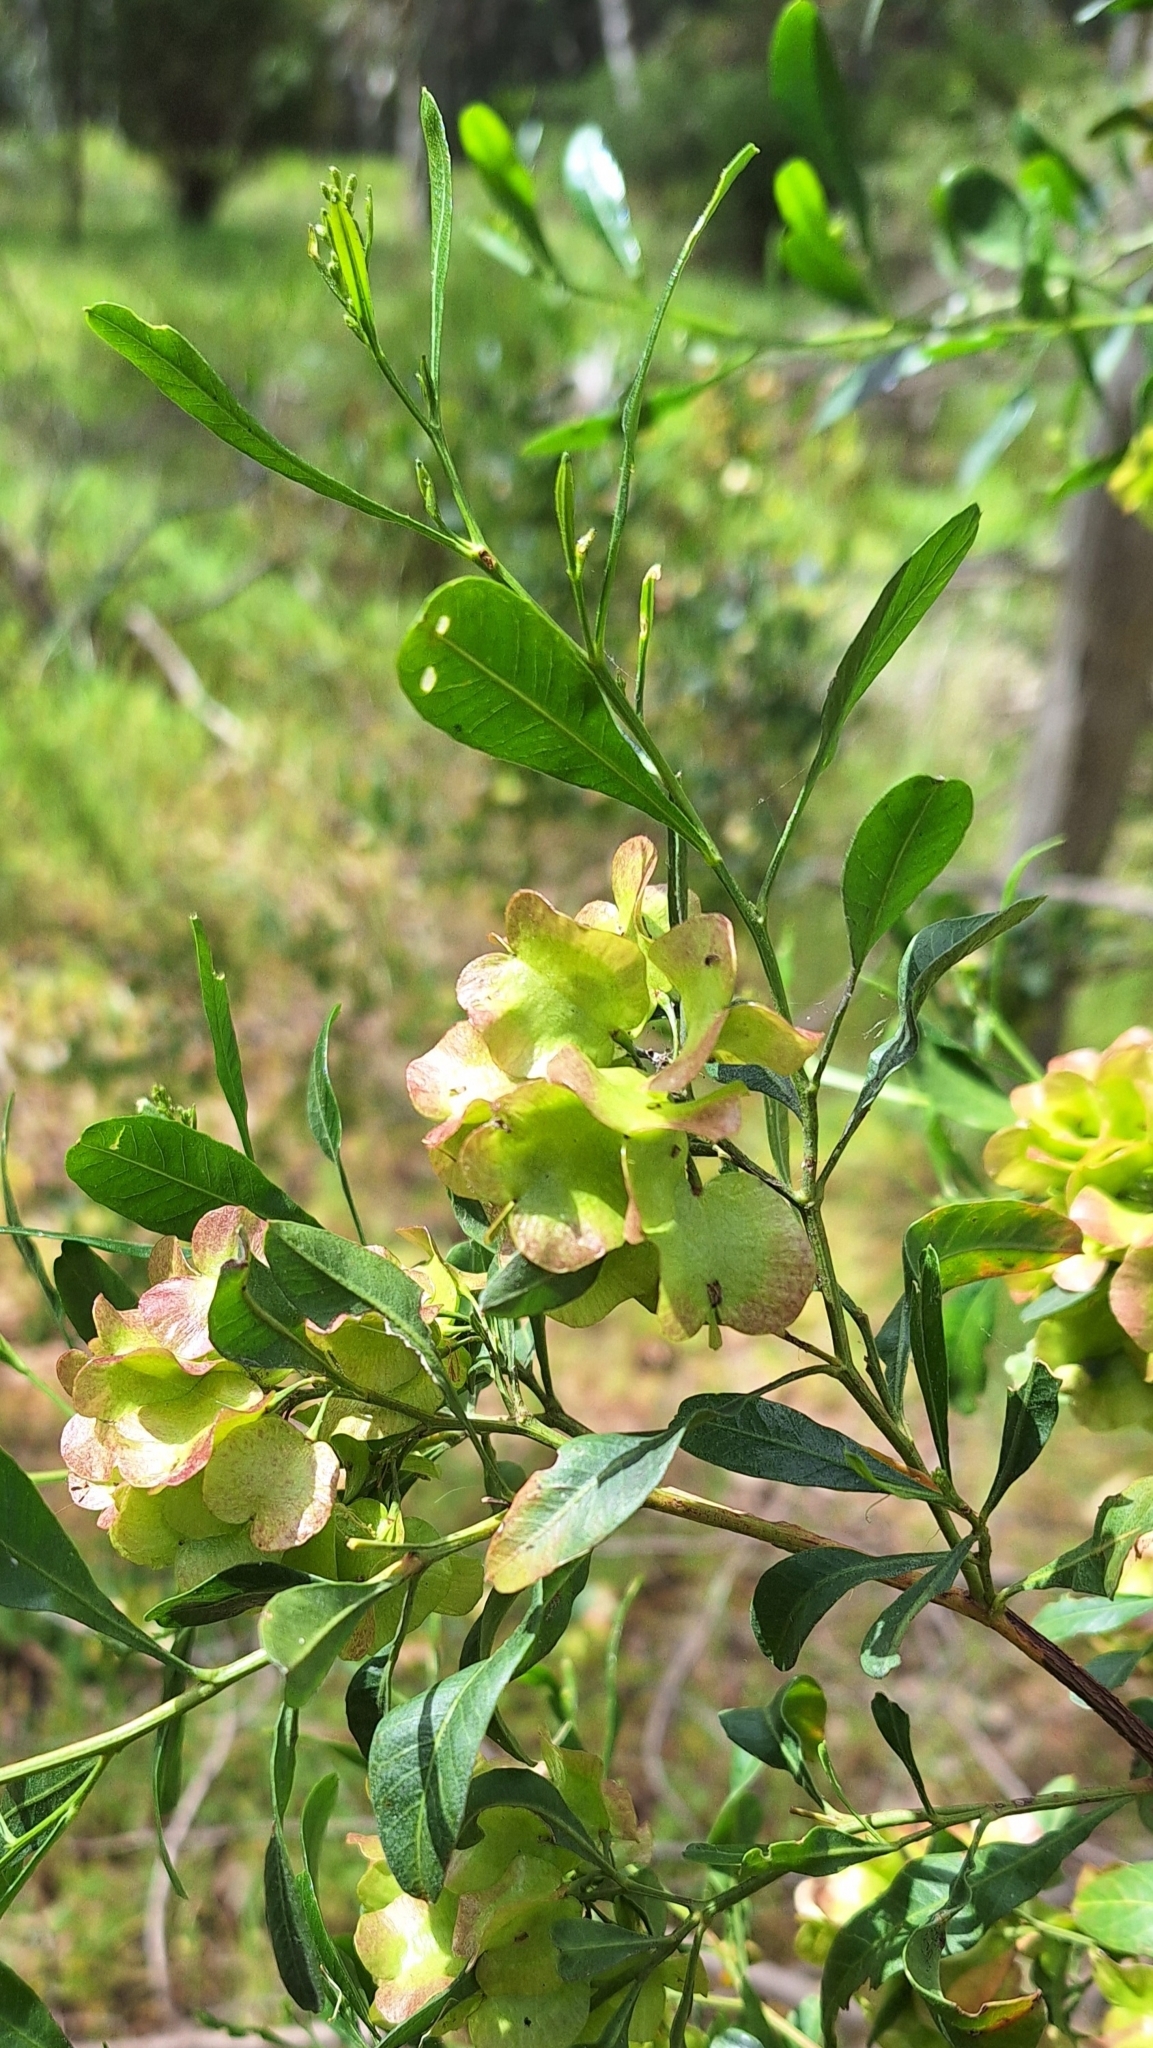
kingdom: Plantae
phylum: Tracheophyta
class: Magnoliopsida
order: Sapindales
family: Sapindaceae
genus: Dodonaea
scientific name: Dodonaea viscosa
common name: Hopbush
